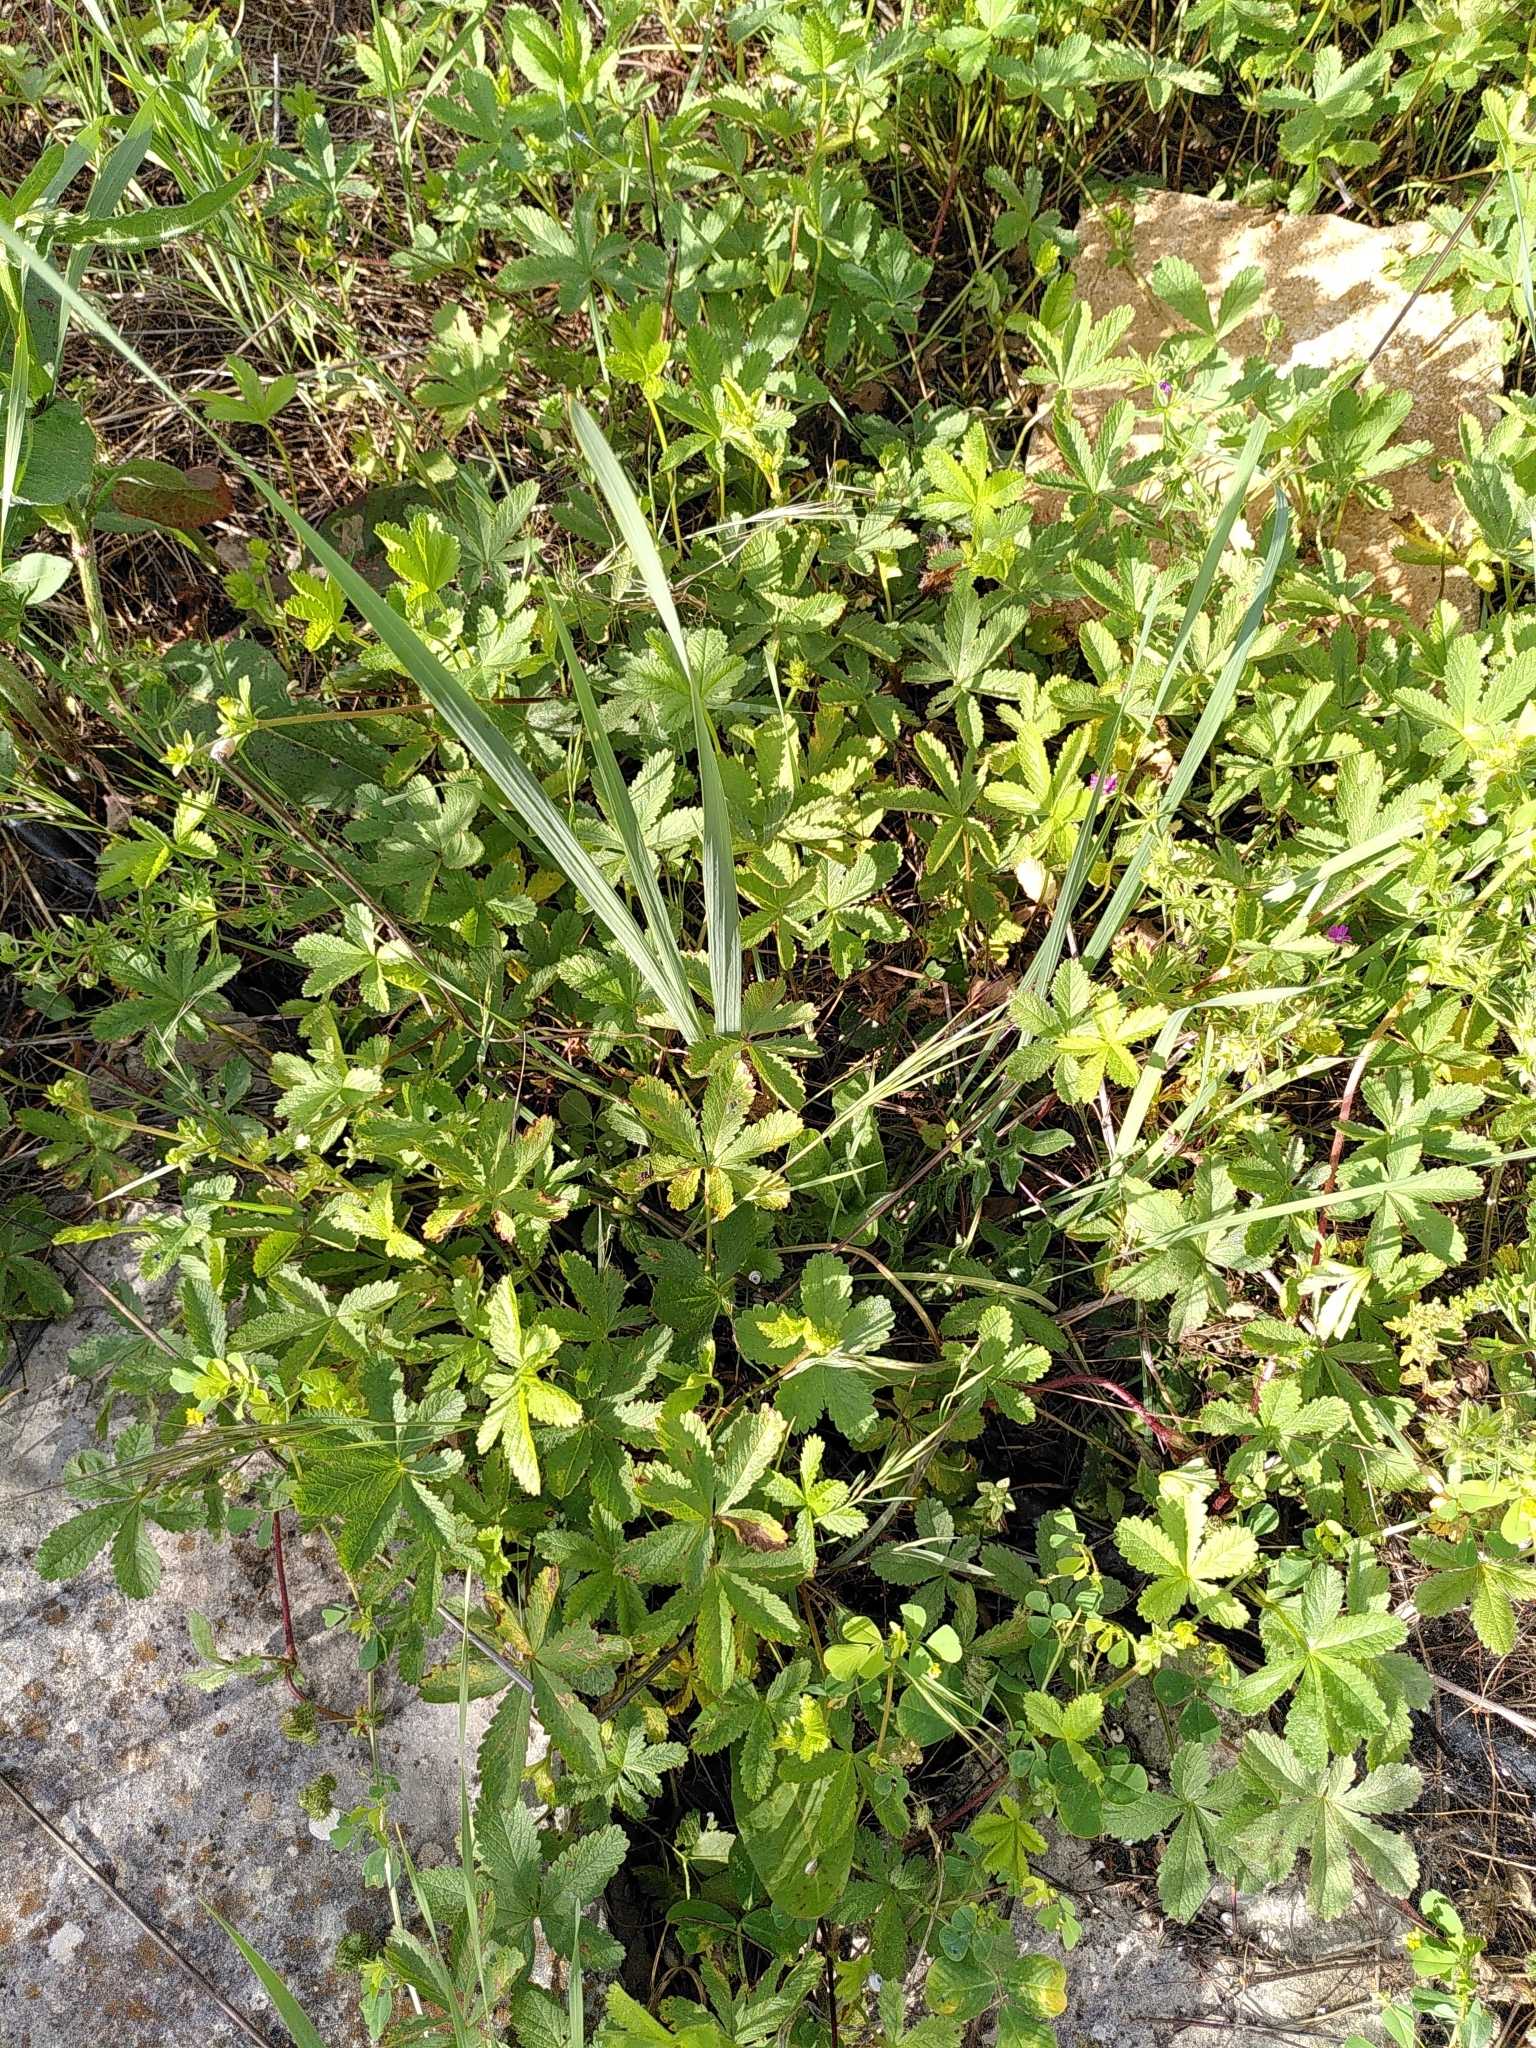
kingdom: Plantae
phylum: Tracheophyta
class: Magnoliopsida
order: Rosales
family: Rosaceae
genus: Potentilla
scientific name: Potentilla reptans
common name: Creeping cinquefoil
